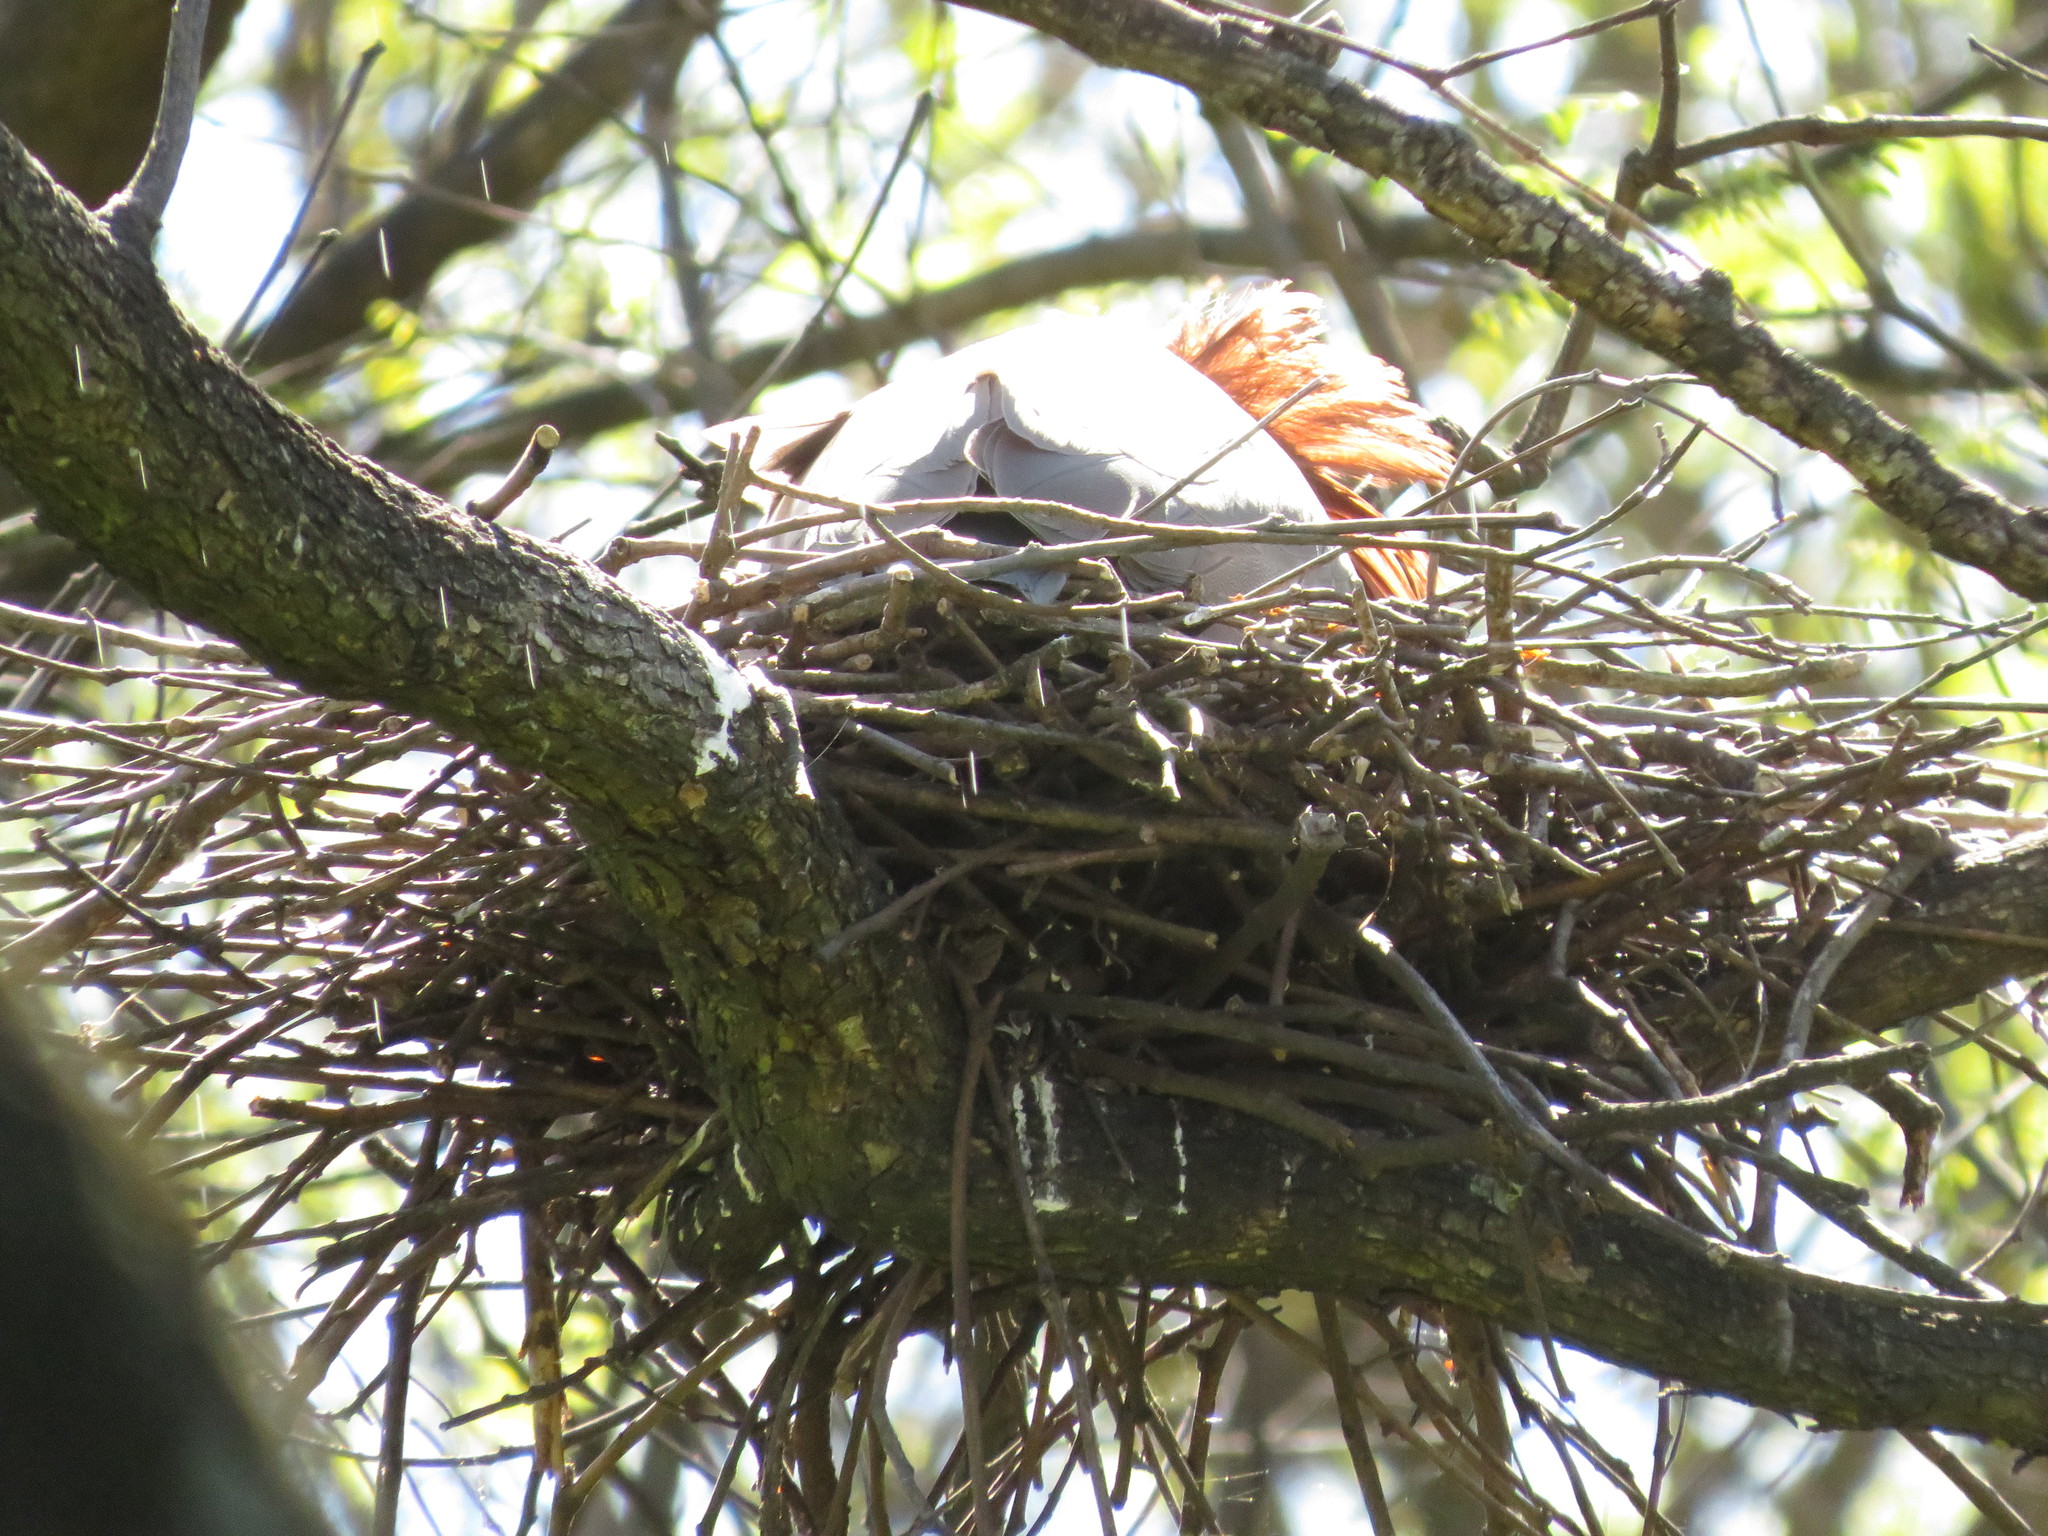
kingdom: Animalia
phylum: Chordata
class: Aves
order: Pelecaniformes
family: Ardeidae
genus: Tigrisoma
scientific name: Tigrisoma lineatum
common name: Rufescent tiger-heron
